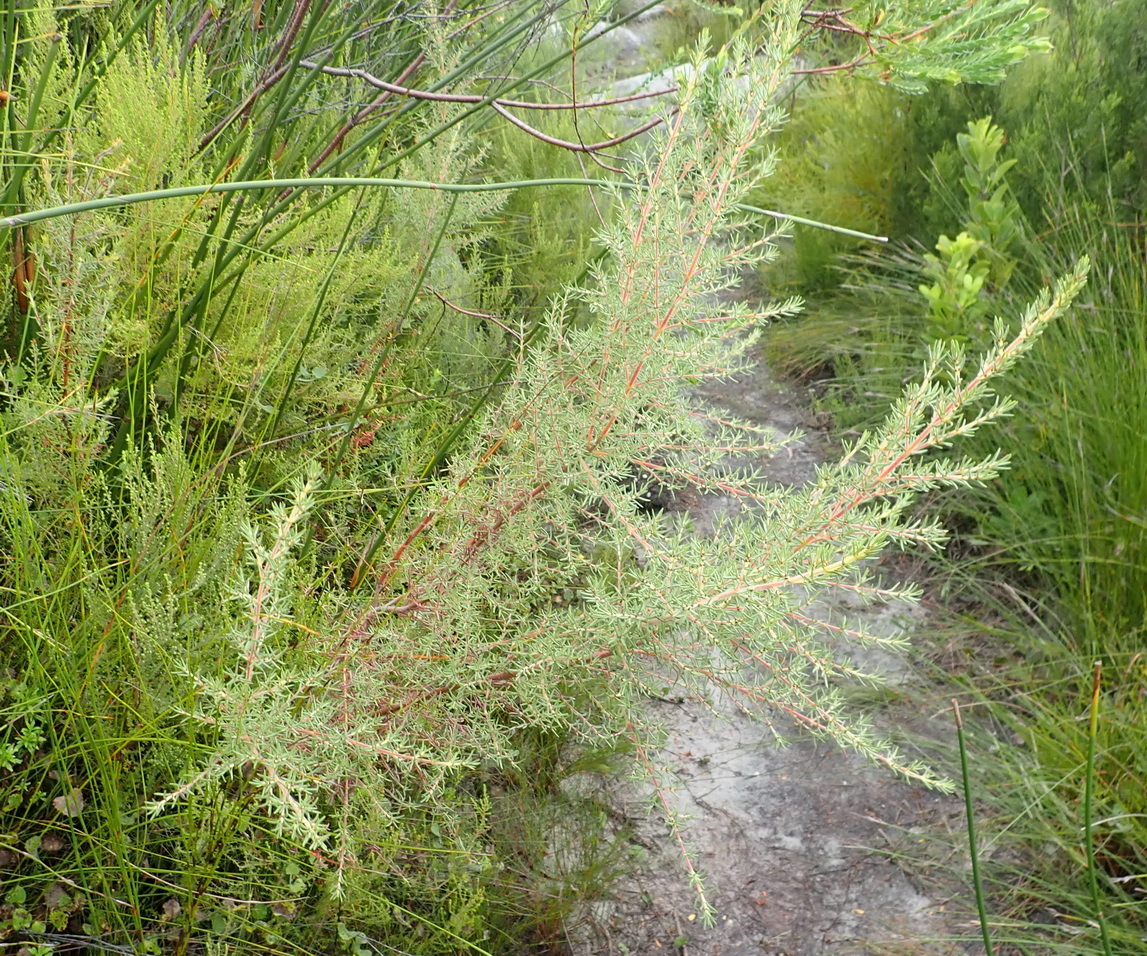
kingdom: Plantae
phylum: Tracheophyta
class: Magnoliopsida
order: Cornales
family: Grubbiaceae
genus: Grubbia
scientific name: Grubbia rosmarinifolia
